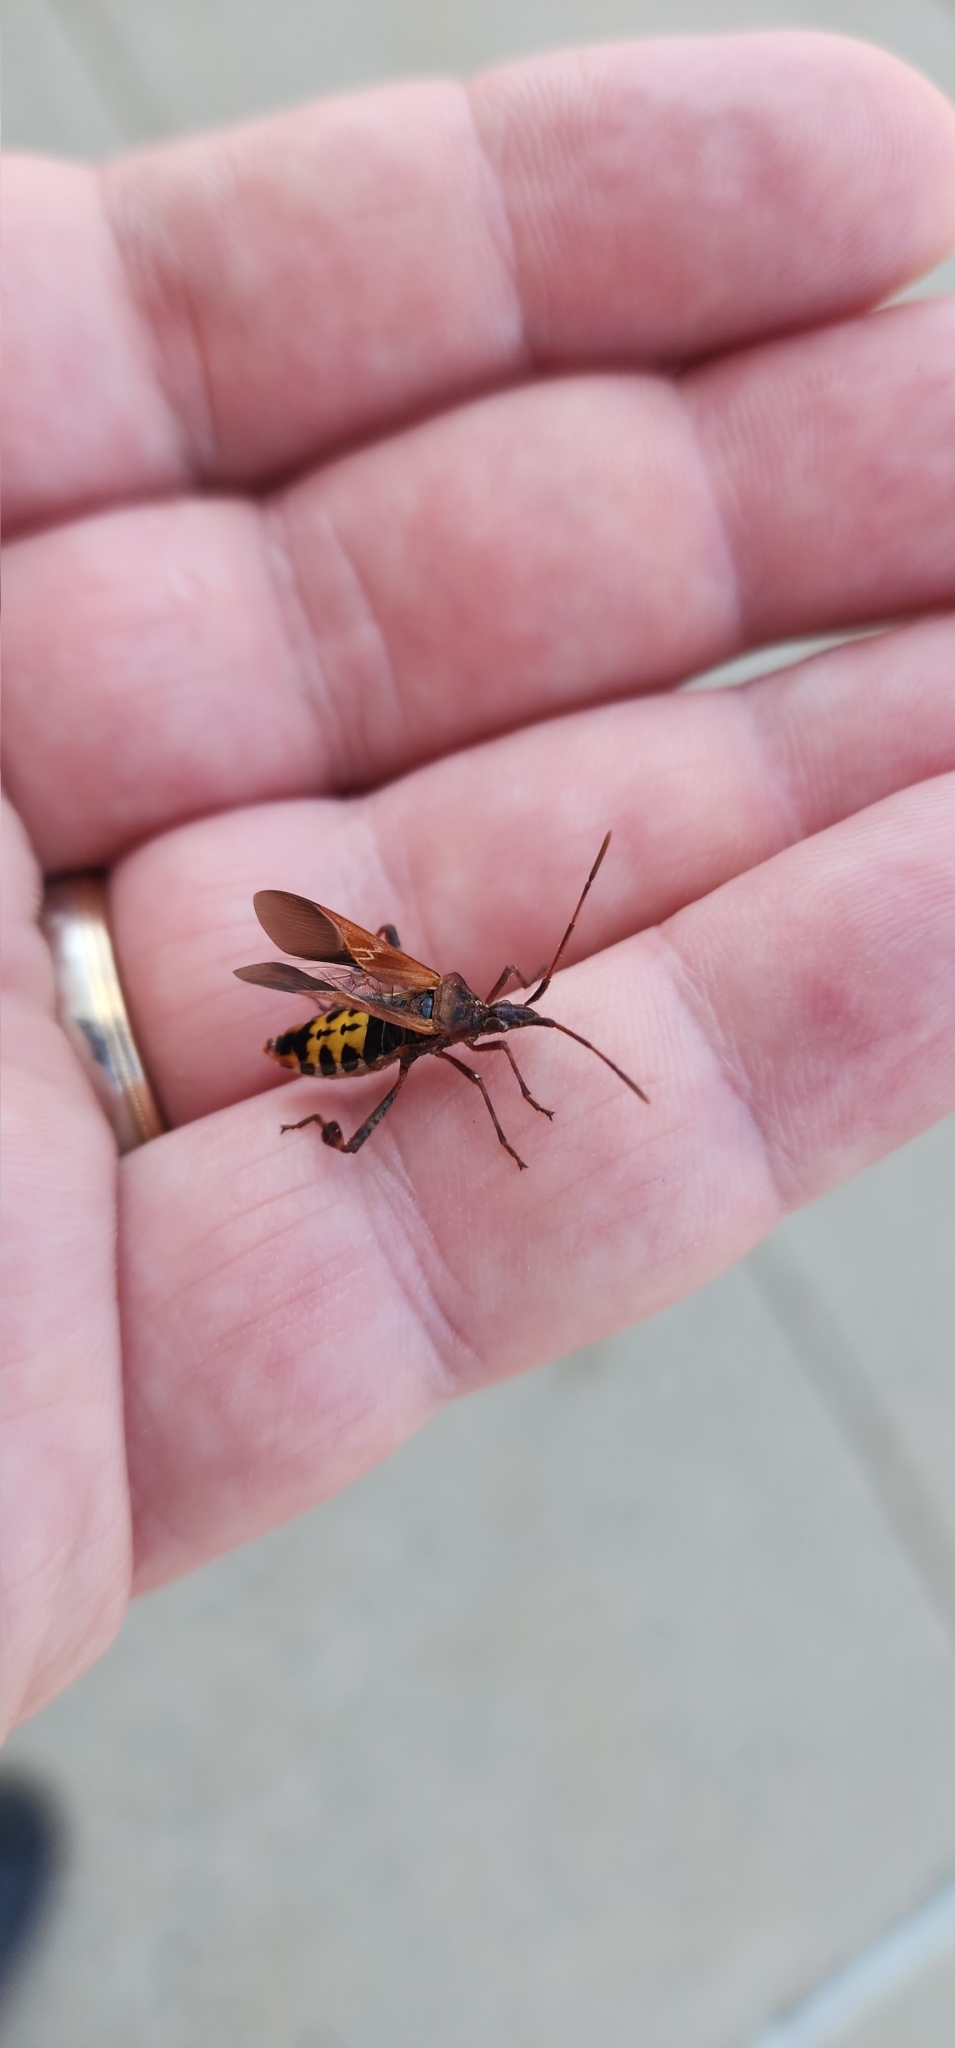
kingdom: Animalia
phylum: Arthropoda
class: Insecta
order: Hemiptera
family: Coreidae
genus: Leptoglossus
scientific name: Leptoglossus occidentalis
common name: Western conifer-seed bug
